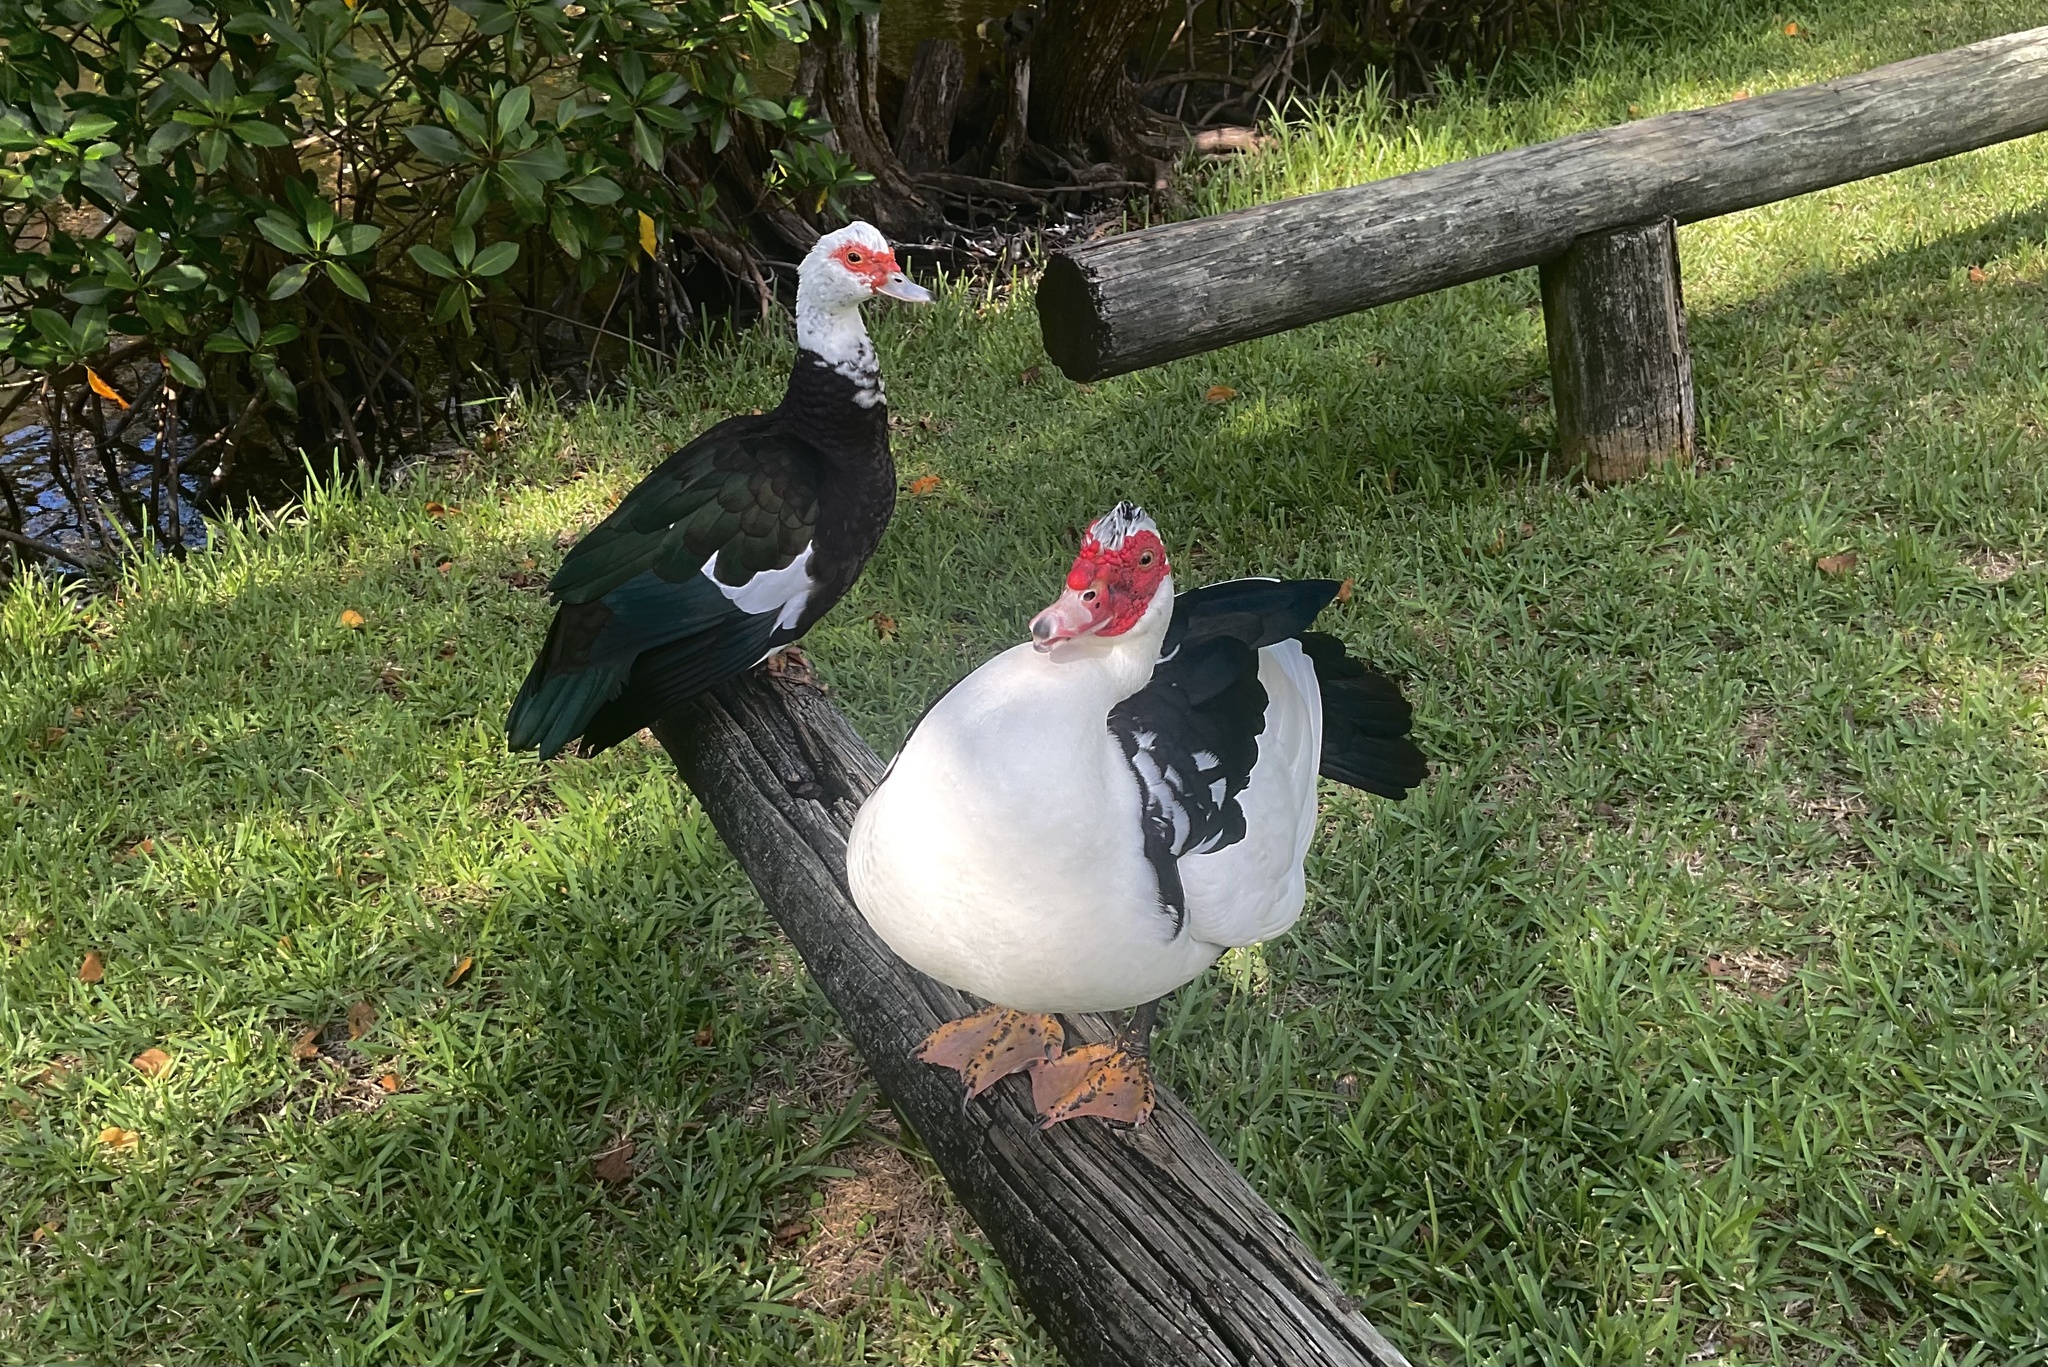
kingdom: Animalia
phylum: Chordata
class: Aves
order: Anseriformes
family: Anatidae
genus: Cairina
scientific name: Cairina moschata
